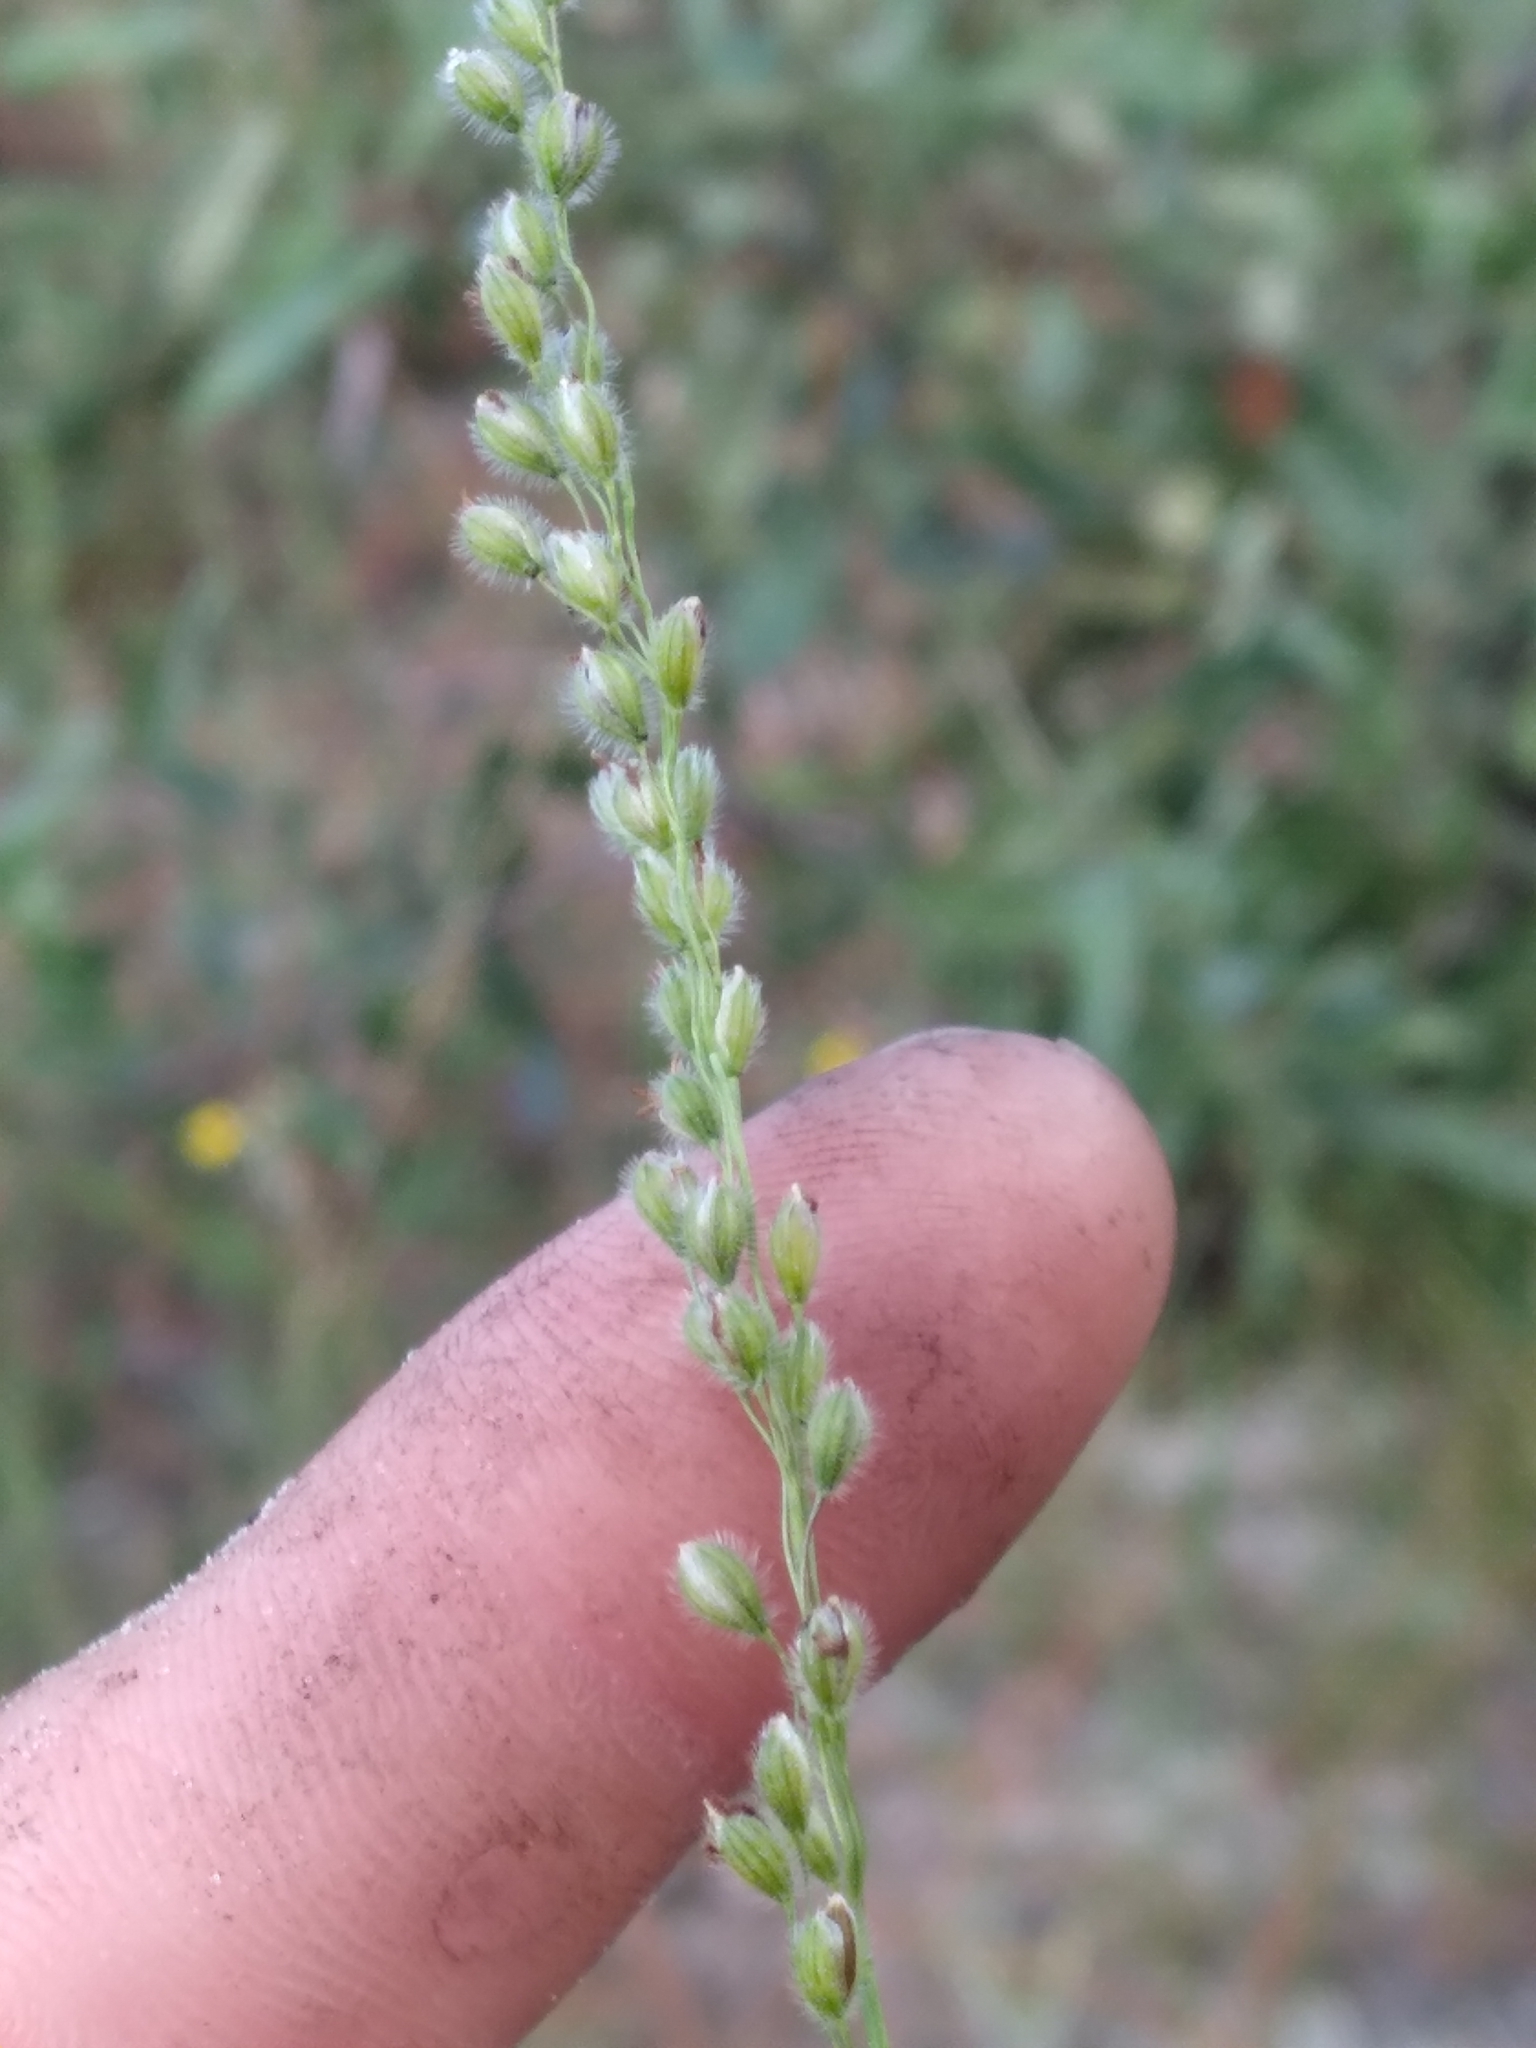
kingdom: Plantae
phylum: Tracheophyta
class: Liliopsida
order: Poales
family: Poaceae
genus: Anthenantia
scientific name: Anthenantia villosa
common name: Green silkyscale
